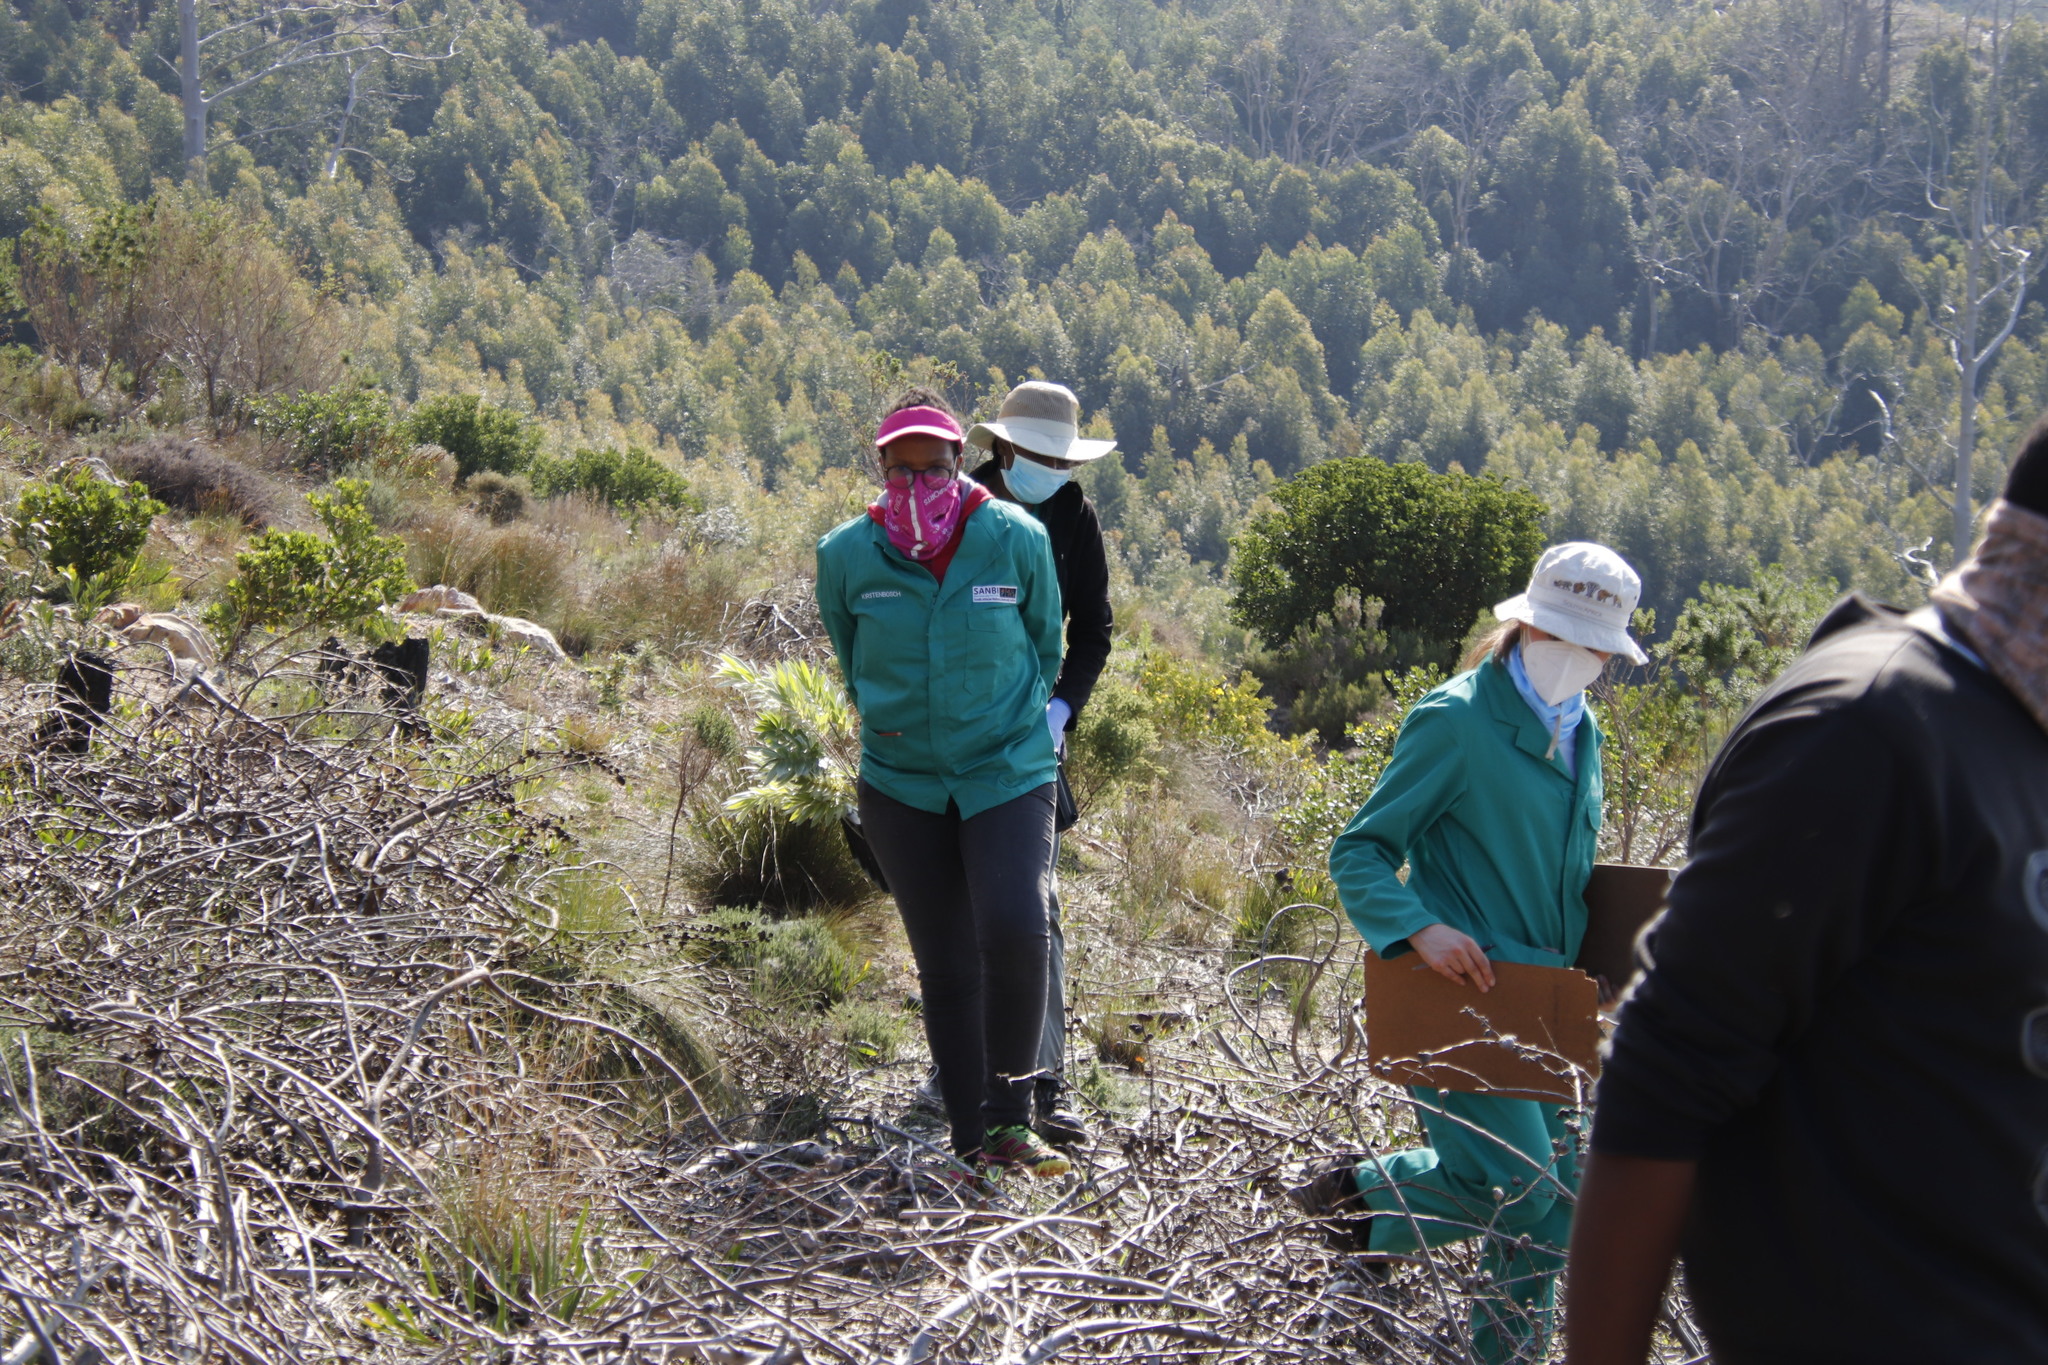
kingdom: Plantae
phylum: Tracheophyta
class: Magnoliopsida
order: Asterales
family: Asteraceae
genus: Osteospermum
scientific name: Osteospermum moniliferum
